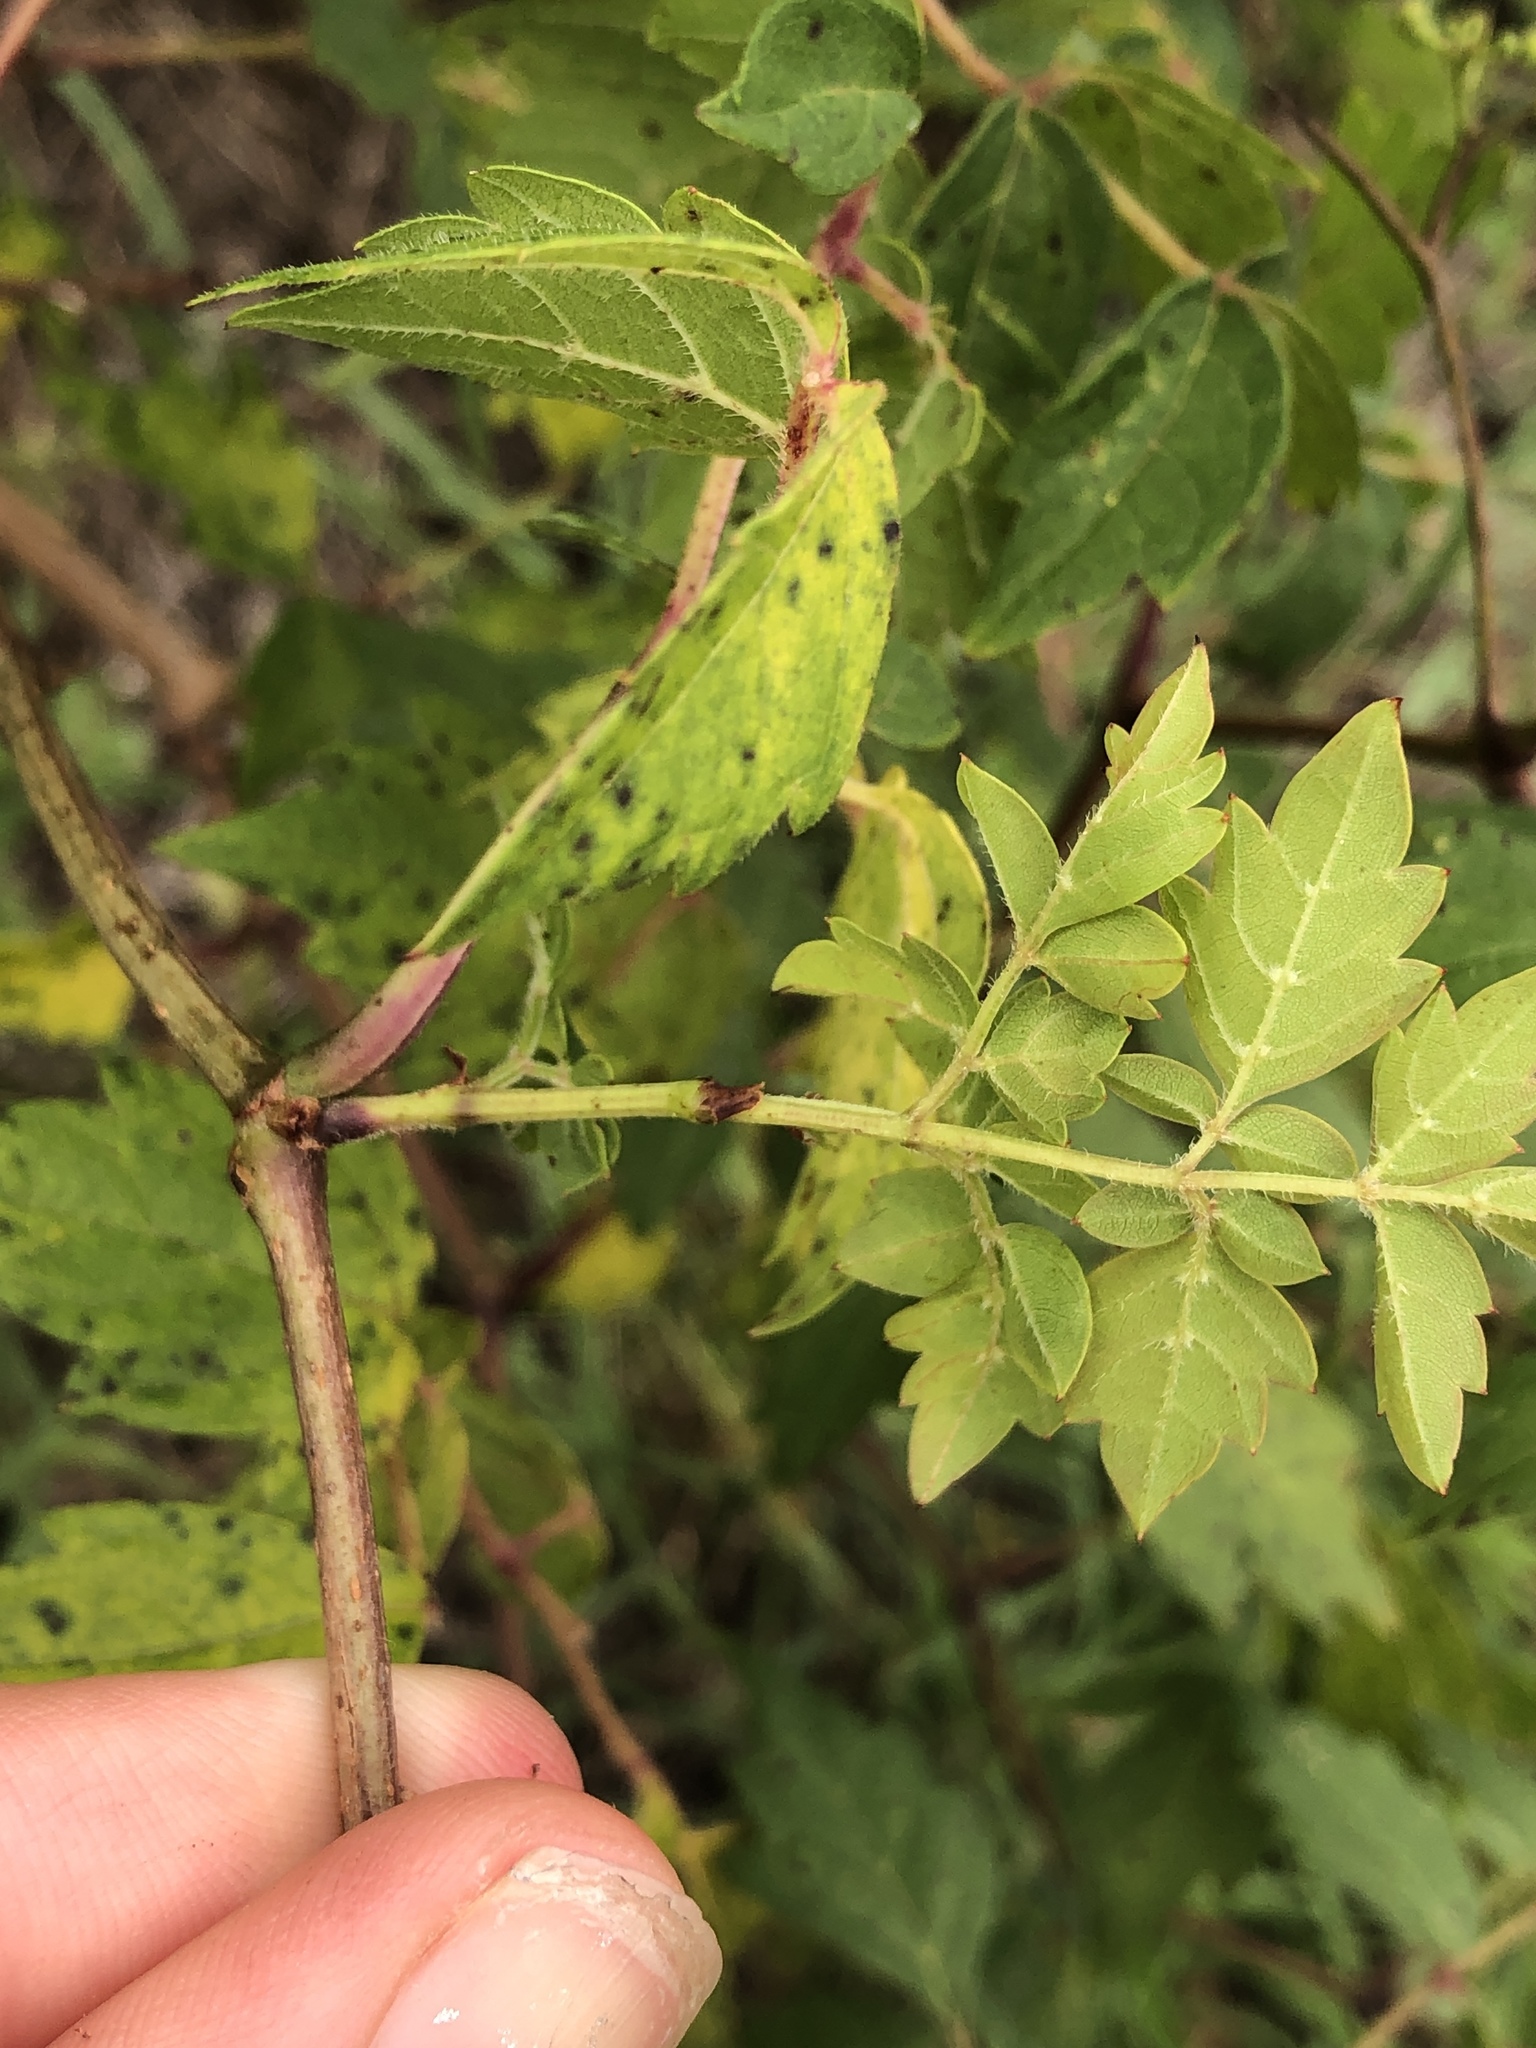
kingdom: Plantae
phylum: Tracheophyta
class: Magnoliopsida
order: Vitales
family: Vitaceae
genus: Nekemias
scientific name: Nekemias arborea
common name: Peppervine
